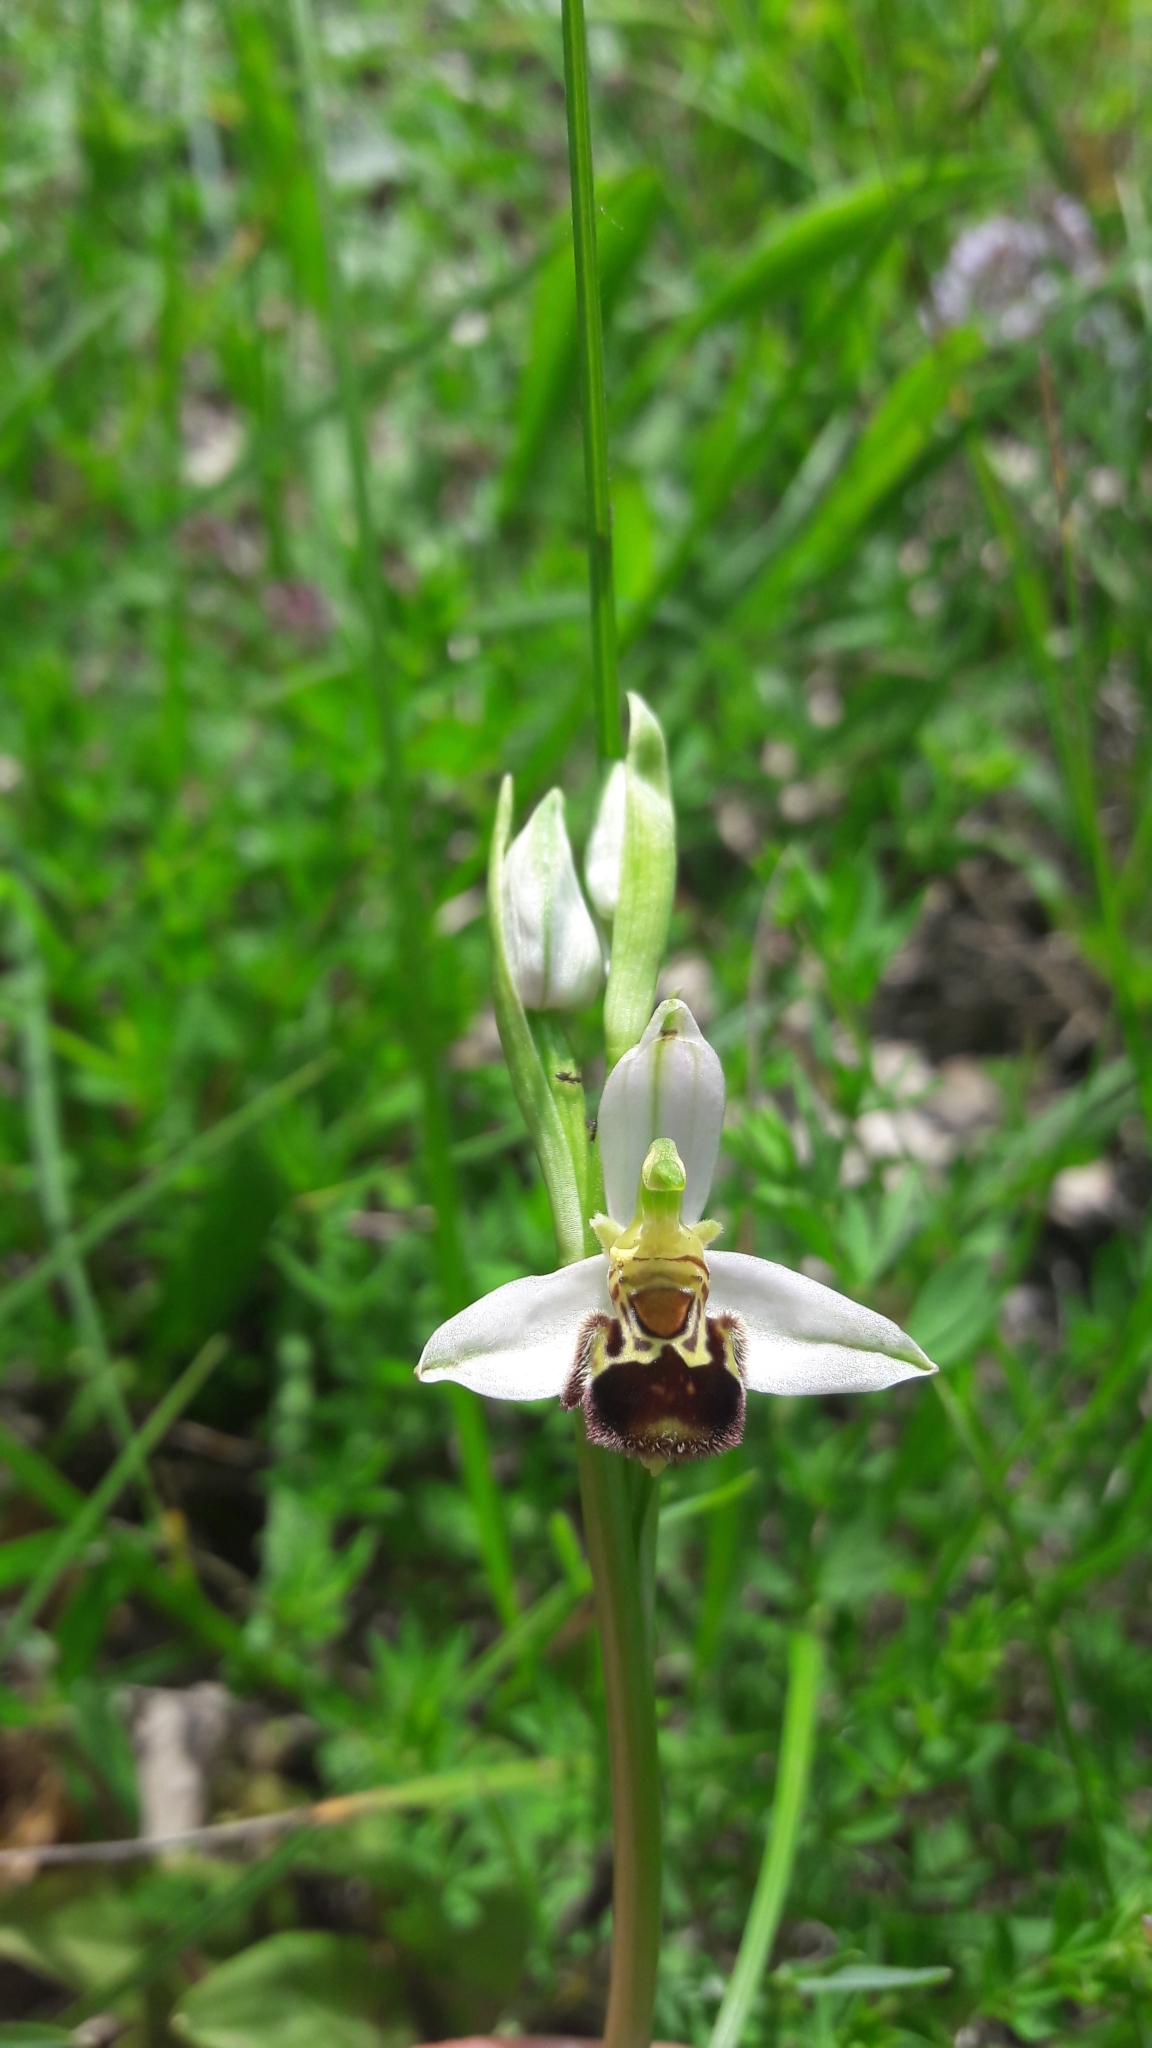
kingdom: Plantae
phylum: Tracheophyta
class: Liliopsida
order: Asparagales
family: Orchidaceae
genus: Ophrys
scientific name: Ophrys apifera
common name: Bee orchid
